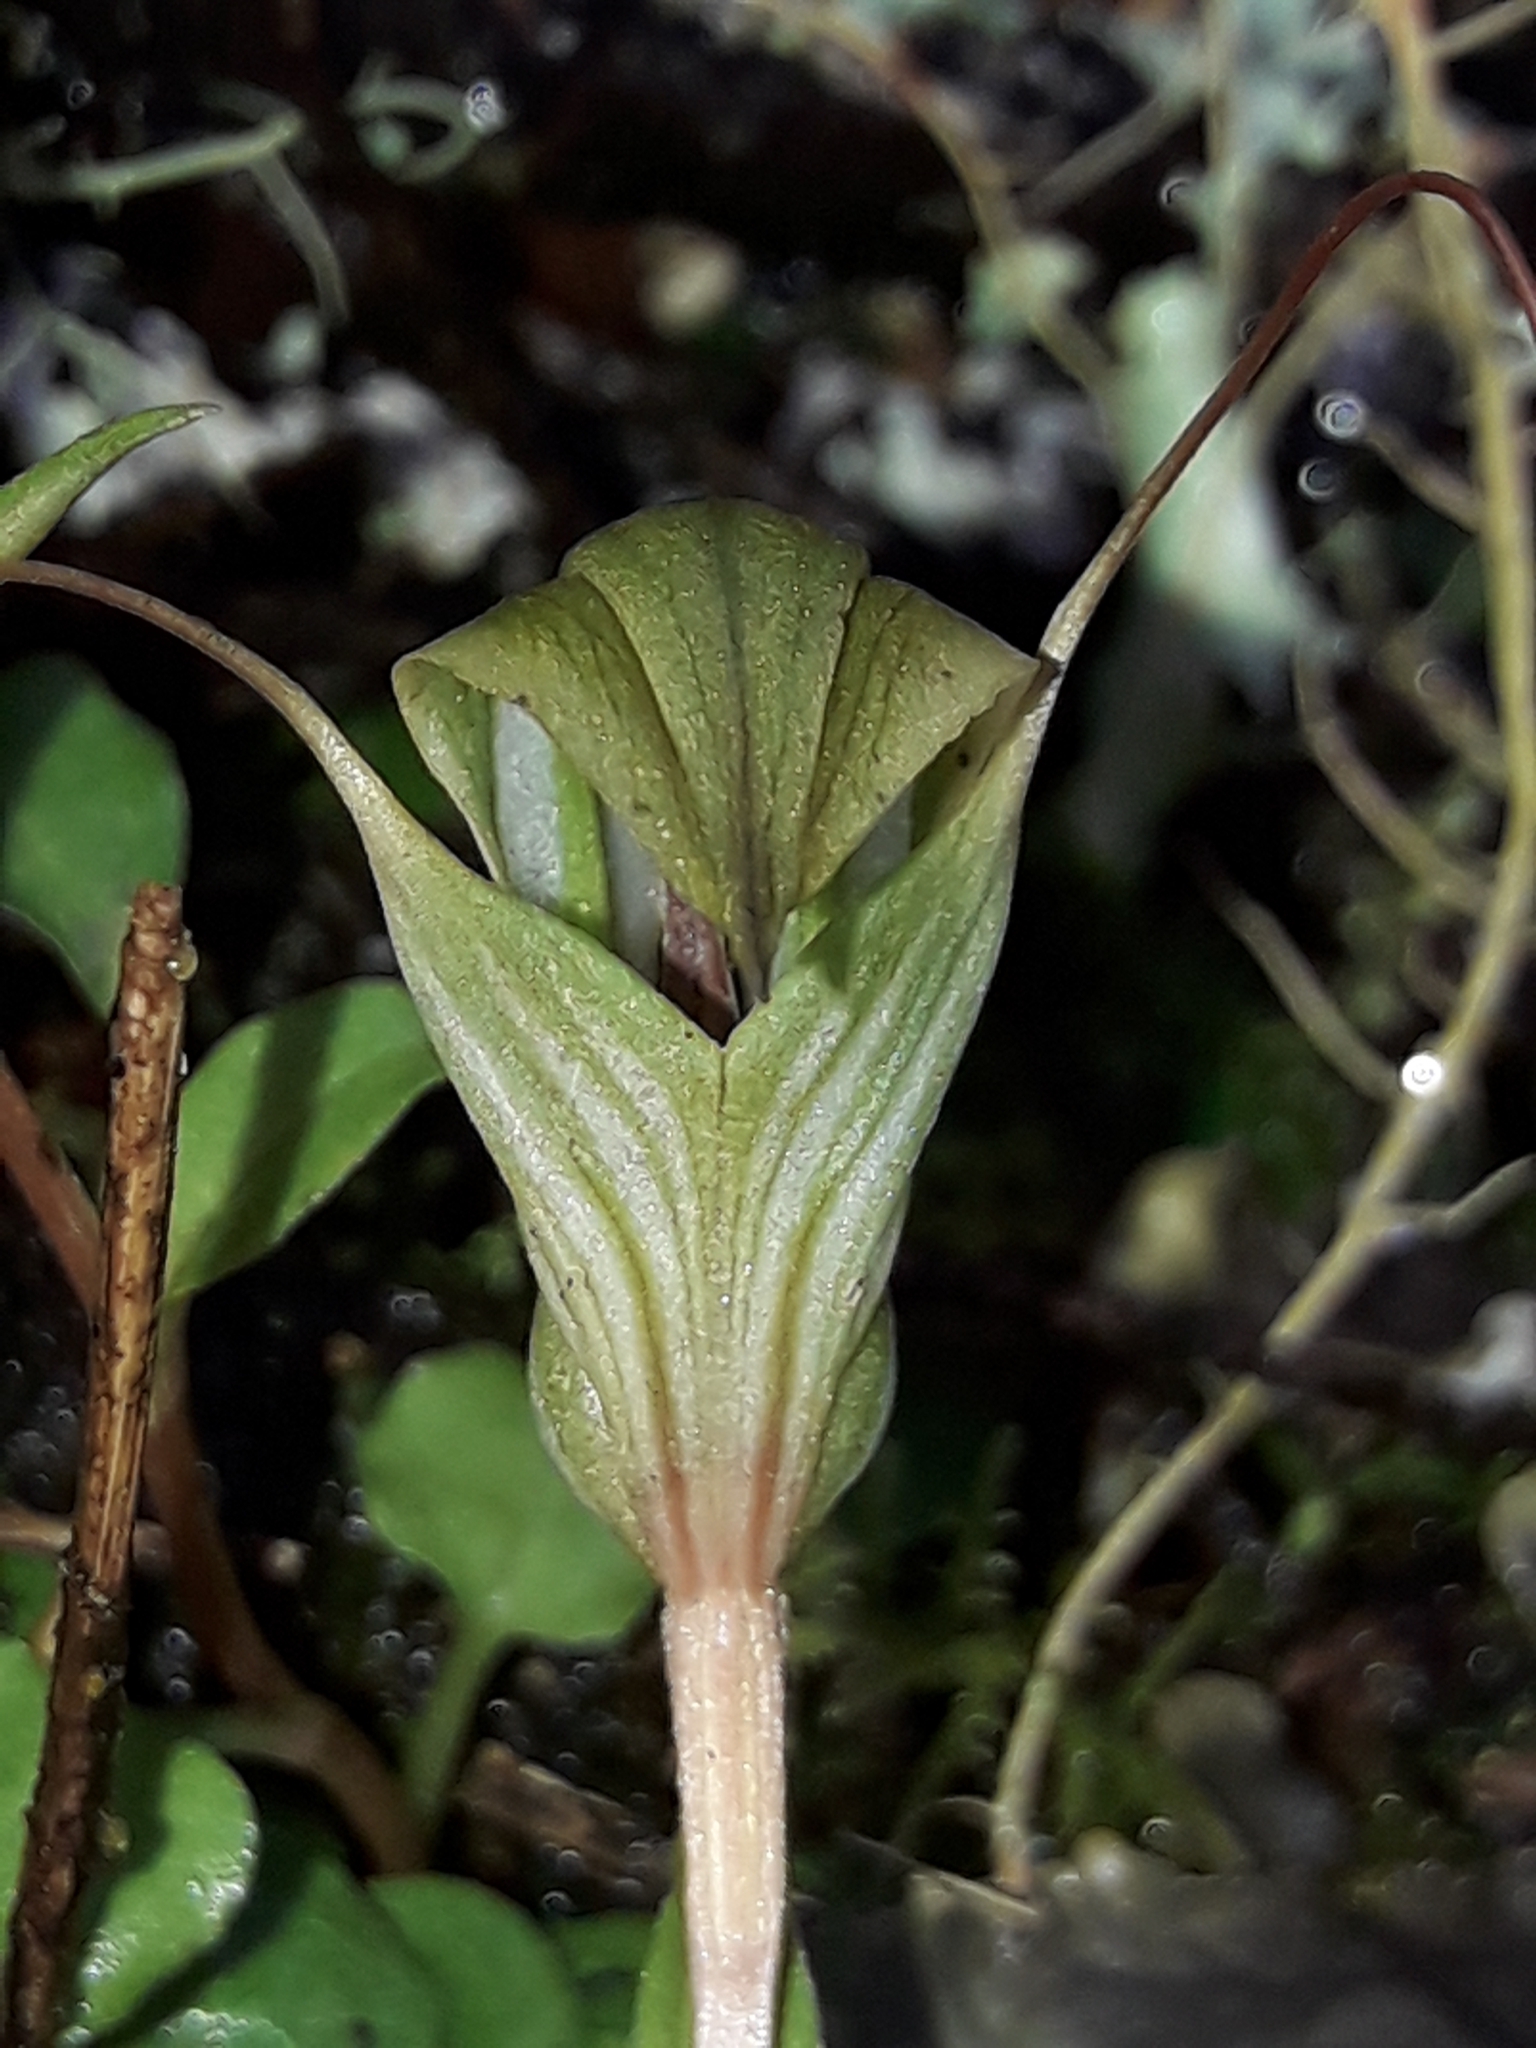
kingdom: Plantae
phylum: Tracheophyta
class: Liliopsida
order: Asparagales
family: Orchidaceae
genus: Pterostylis
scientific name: Pterostylis alobula
